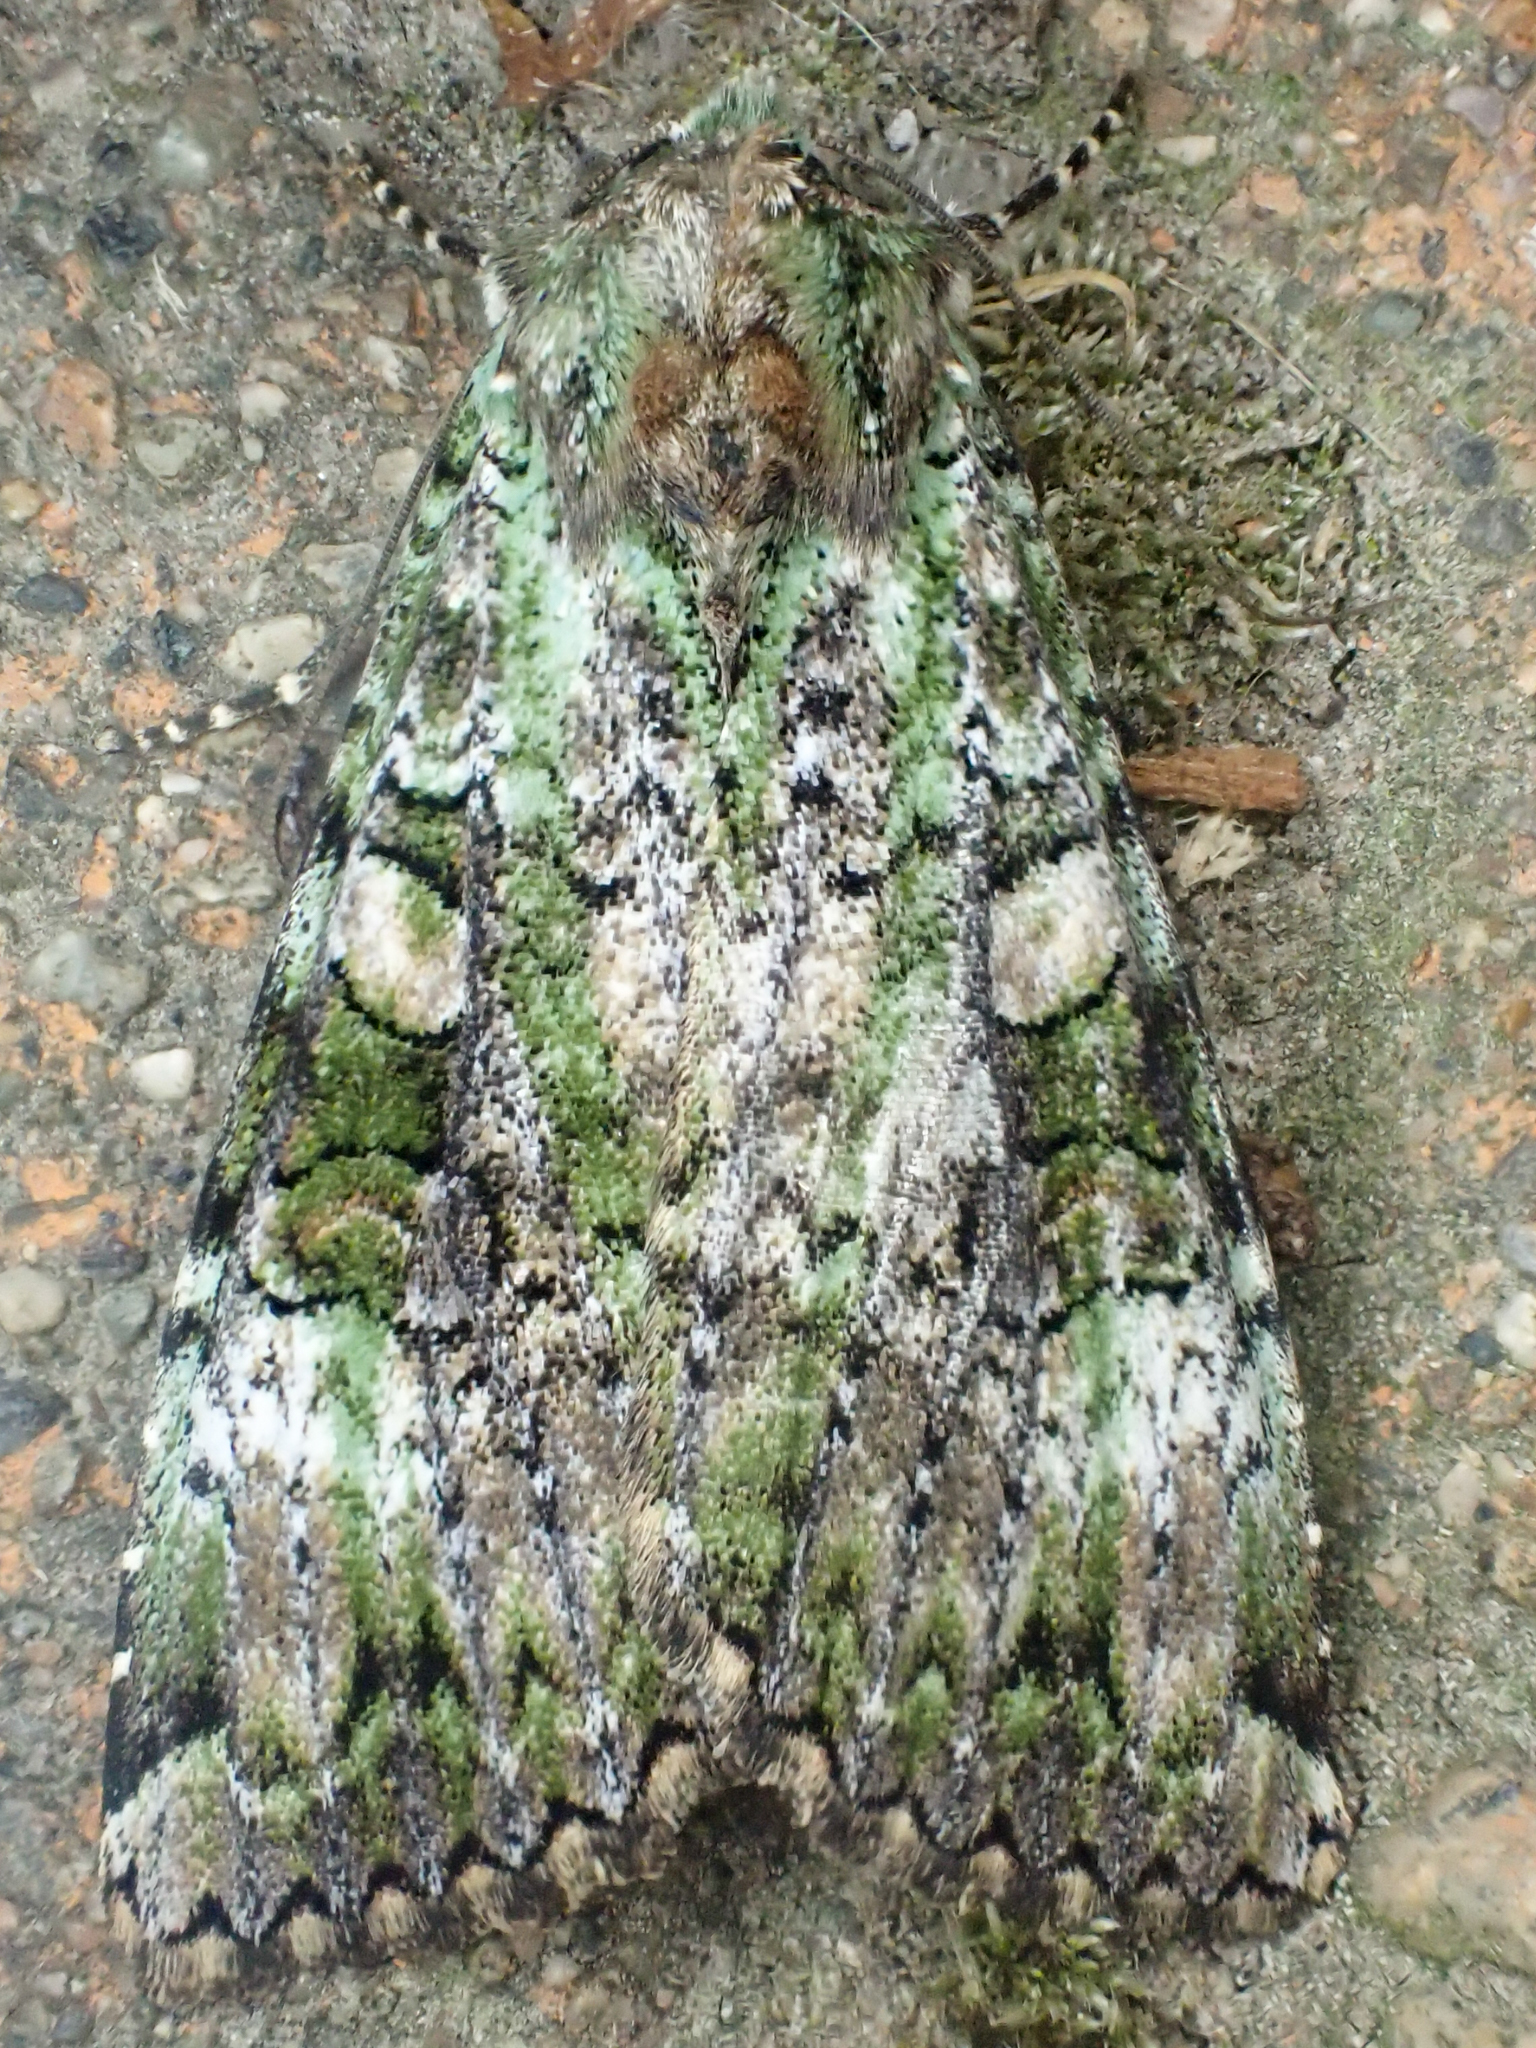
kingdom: Animalia
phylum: Arthropoda
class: Insecta
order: Lepidoptera
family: Noctuidae
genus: Anaplectoides
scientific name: Anaplectoides prasina
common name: Green arches
